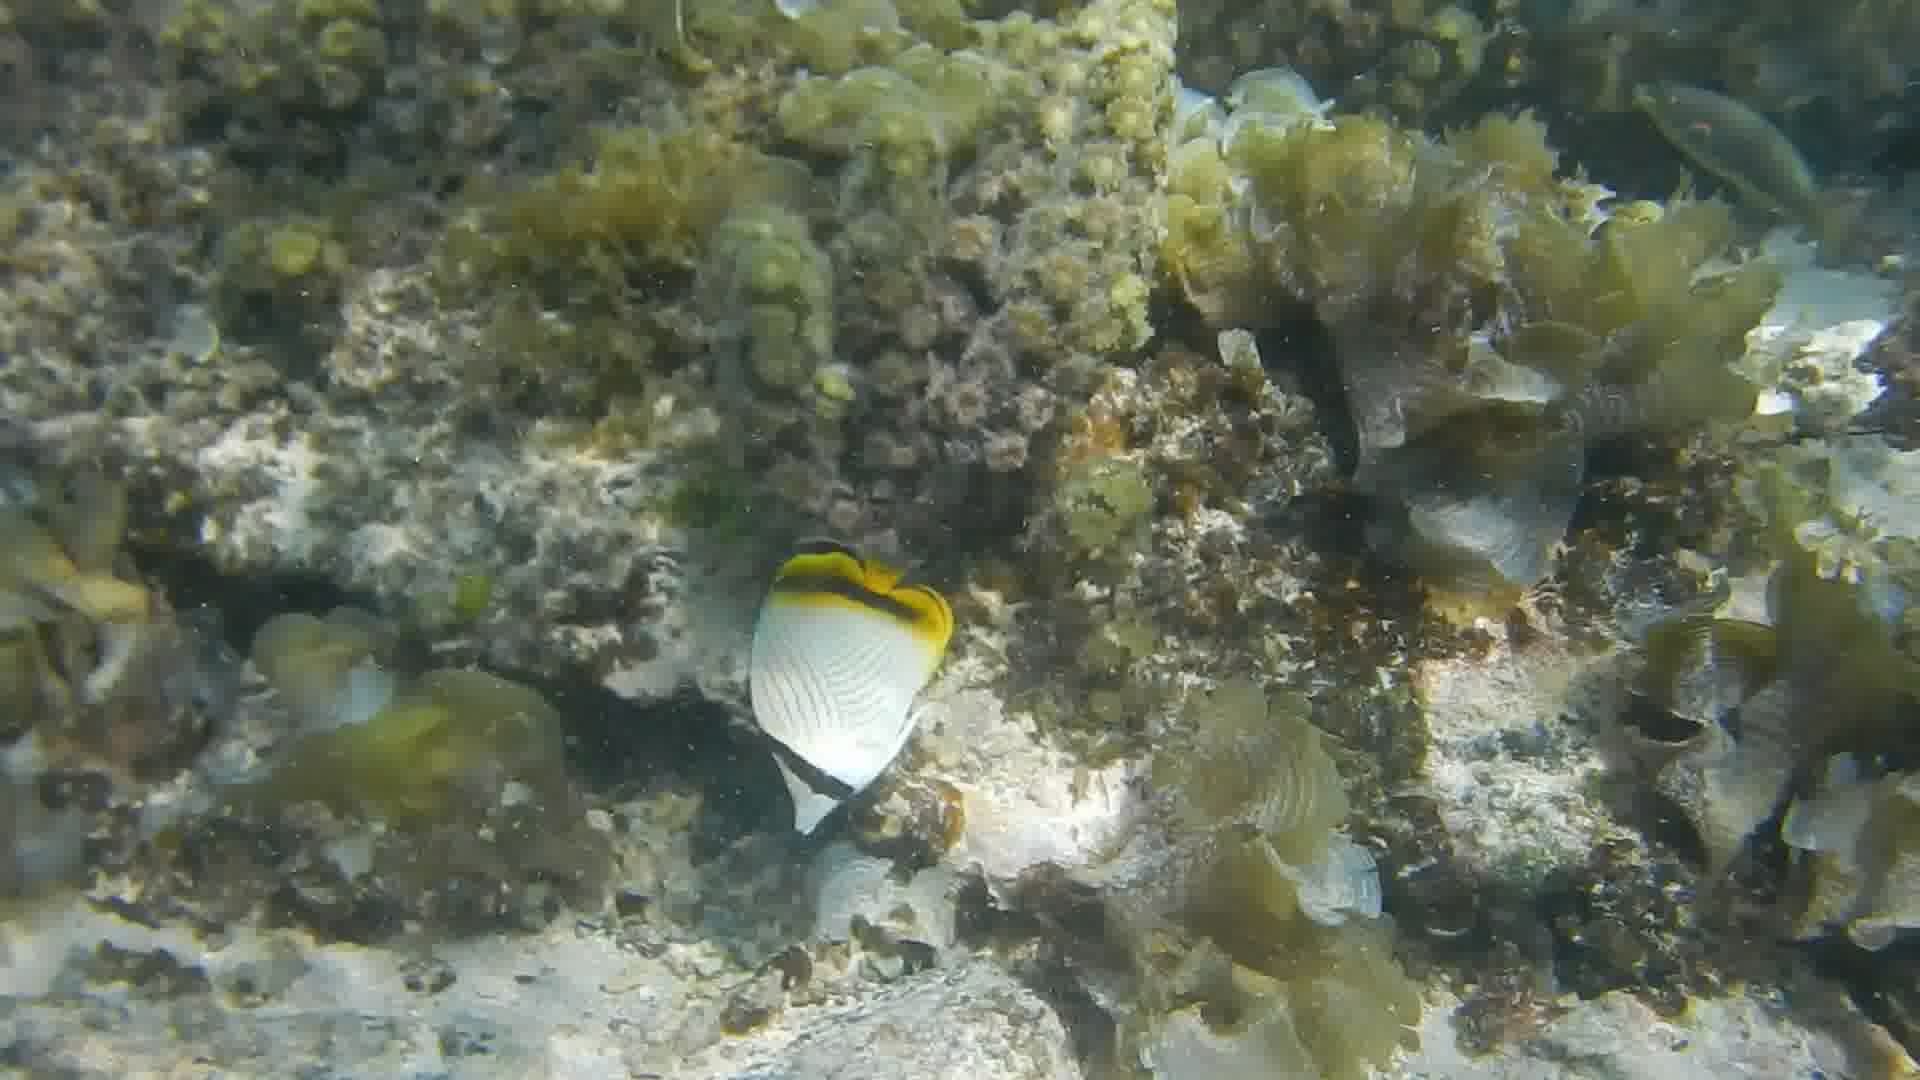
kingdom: Animalia
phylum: Chordata
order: Perciformes
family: Chaetodontidae
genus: Chaetodon
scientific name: Chaetodon vagabundus
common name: Vagabond butterflyfish
